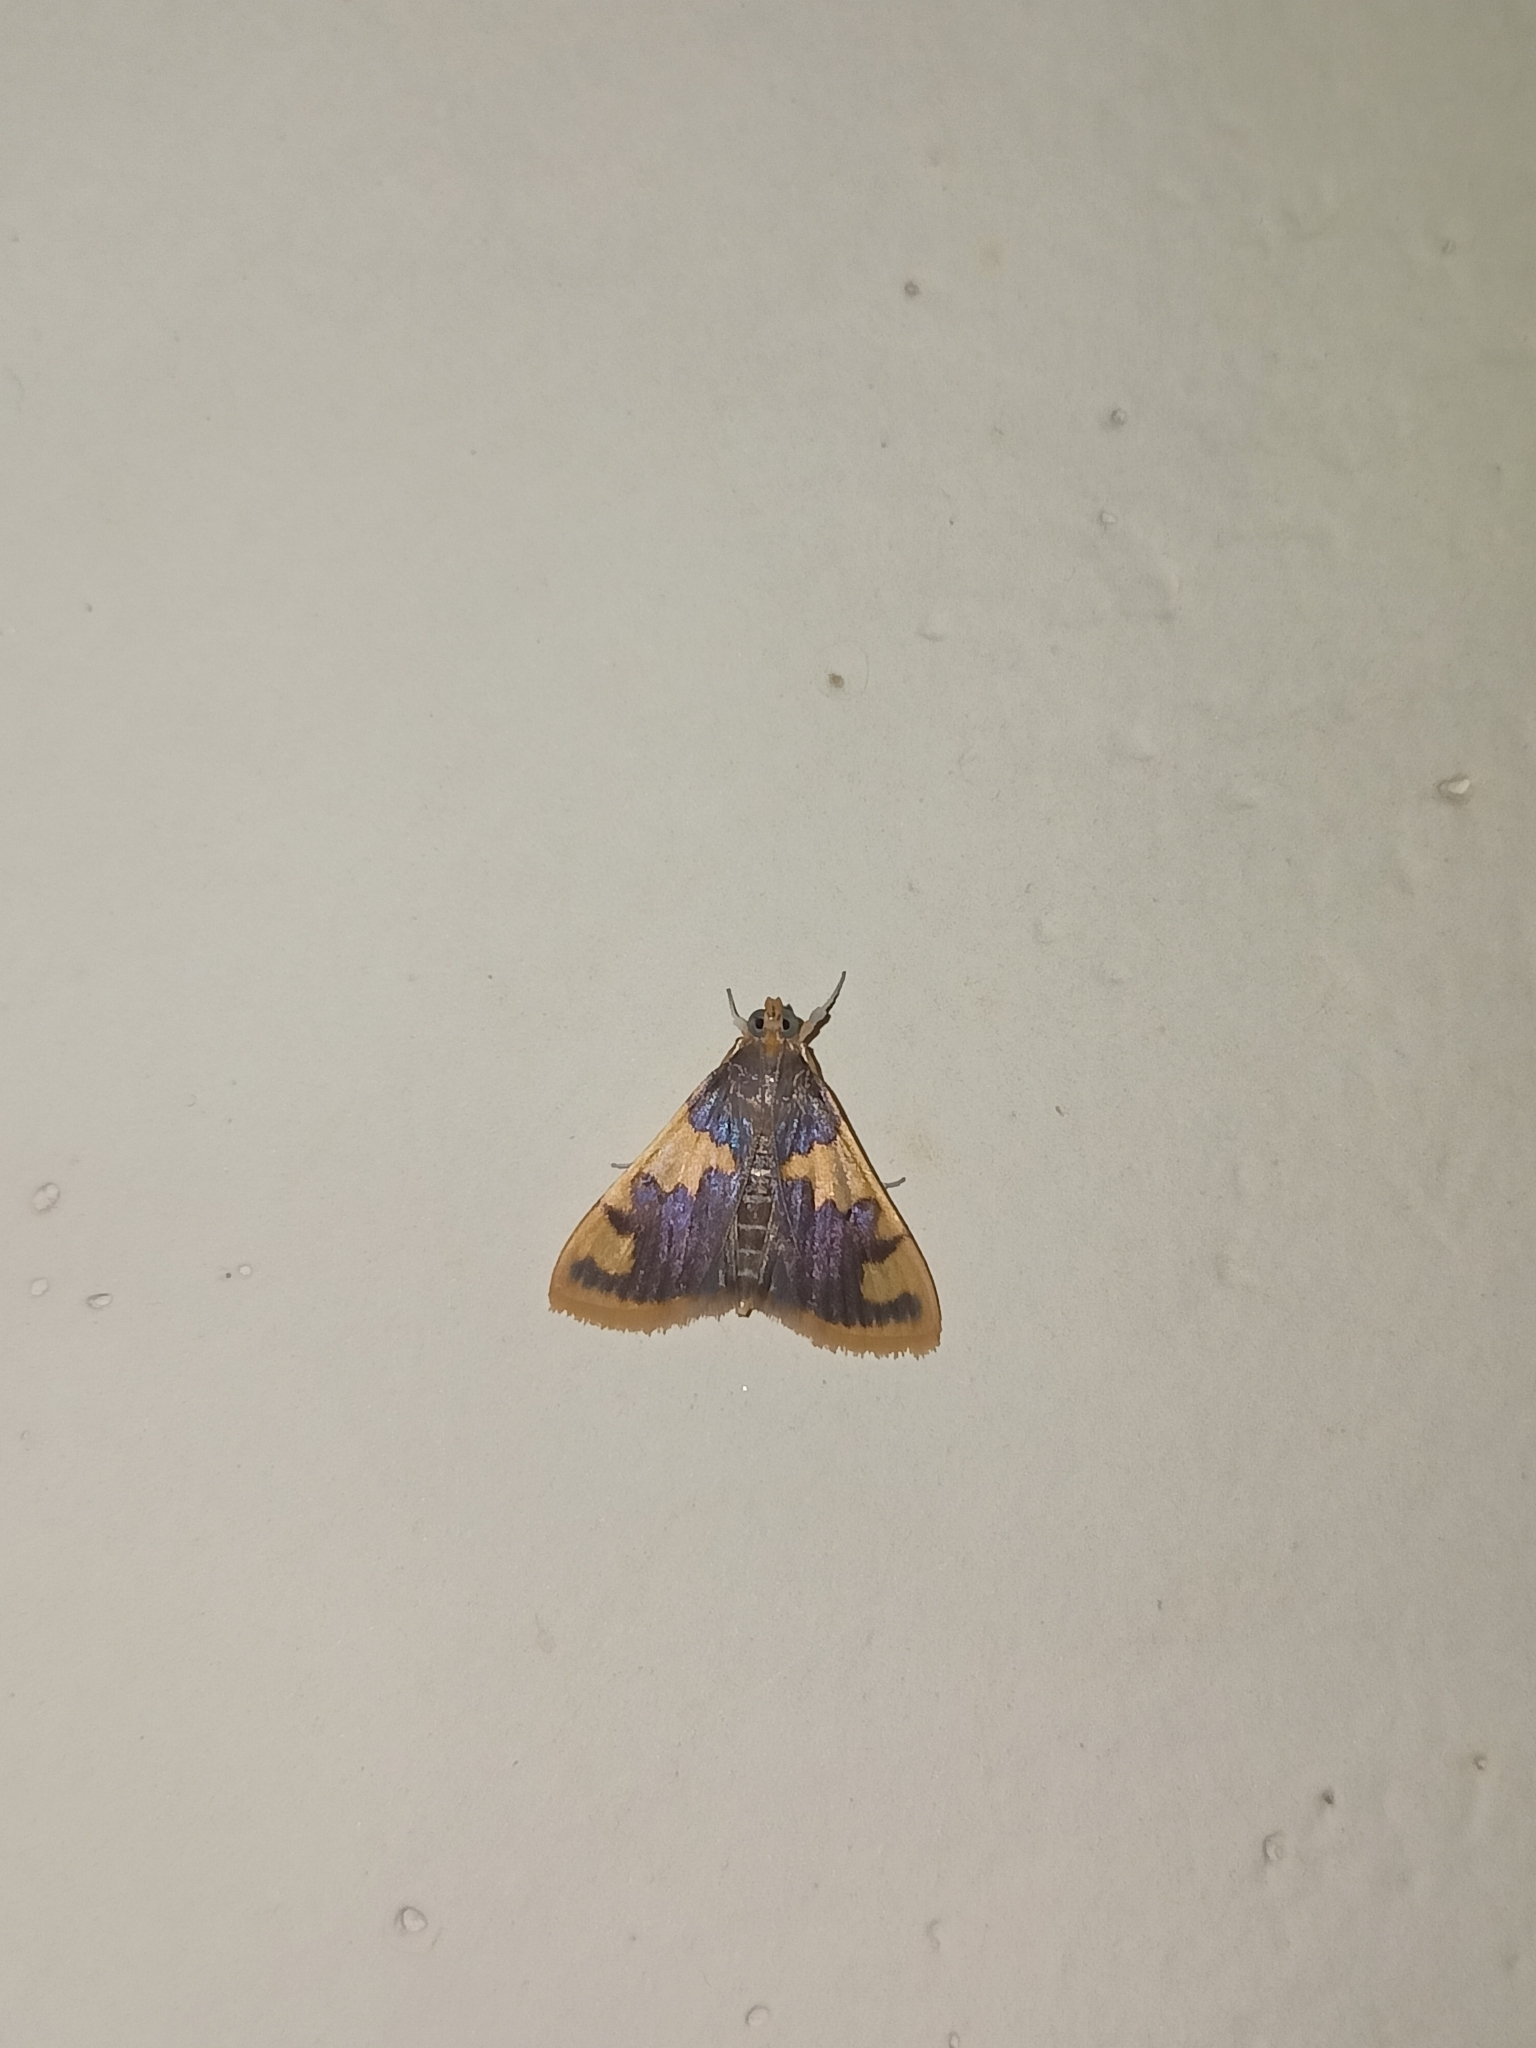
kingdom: Animalia
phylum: Arthropoda
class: Insecta
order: Lepidoptera
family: Crambidae
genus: Rehimena
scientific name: Rehimena phrynealis
